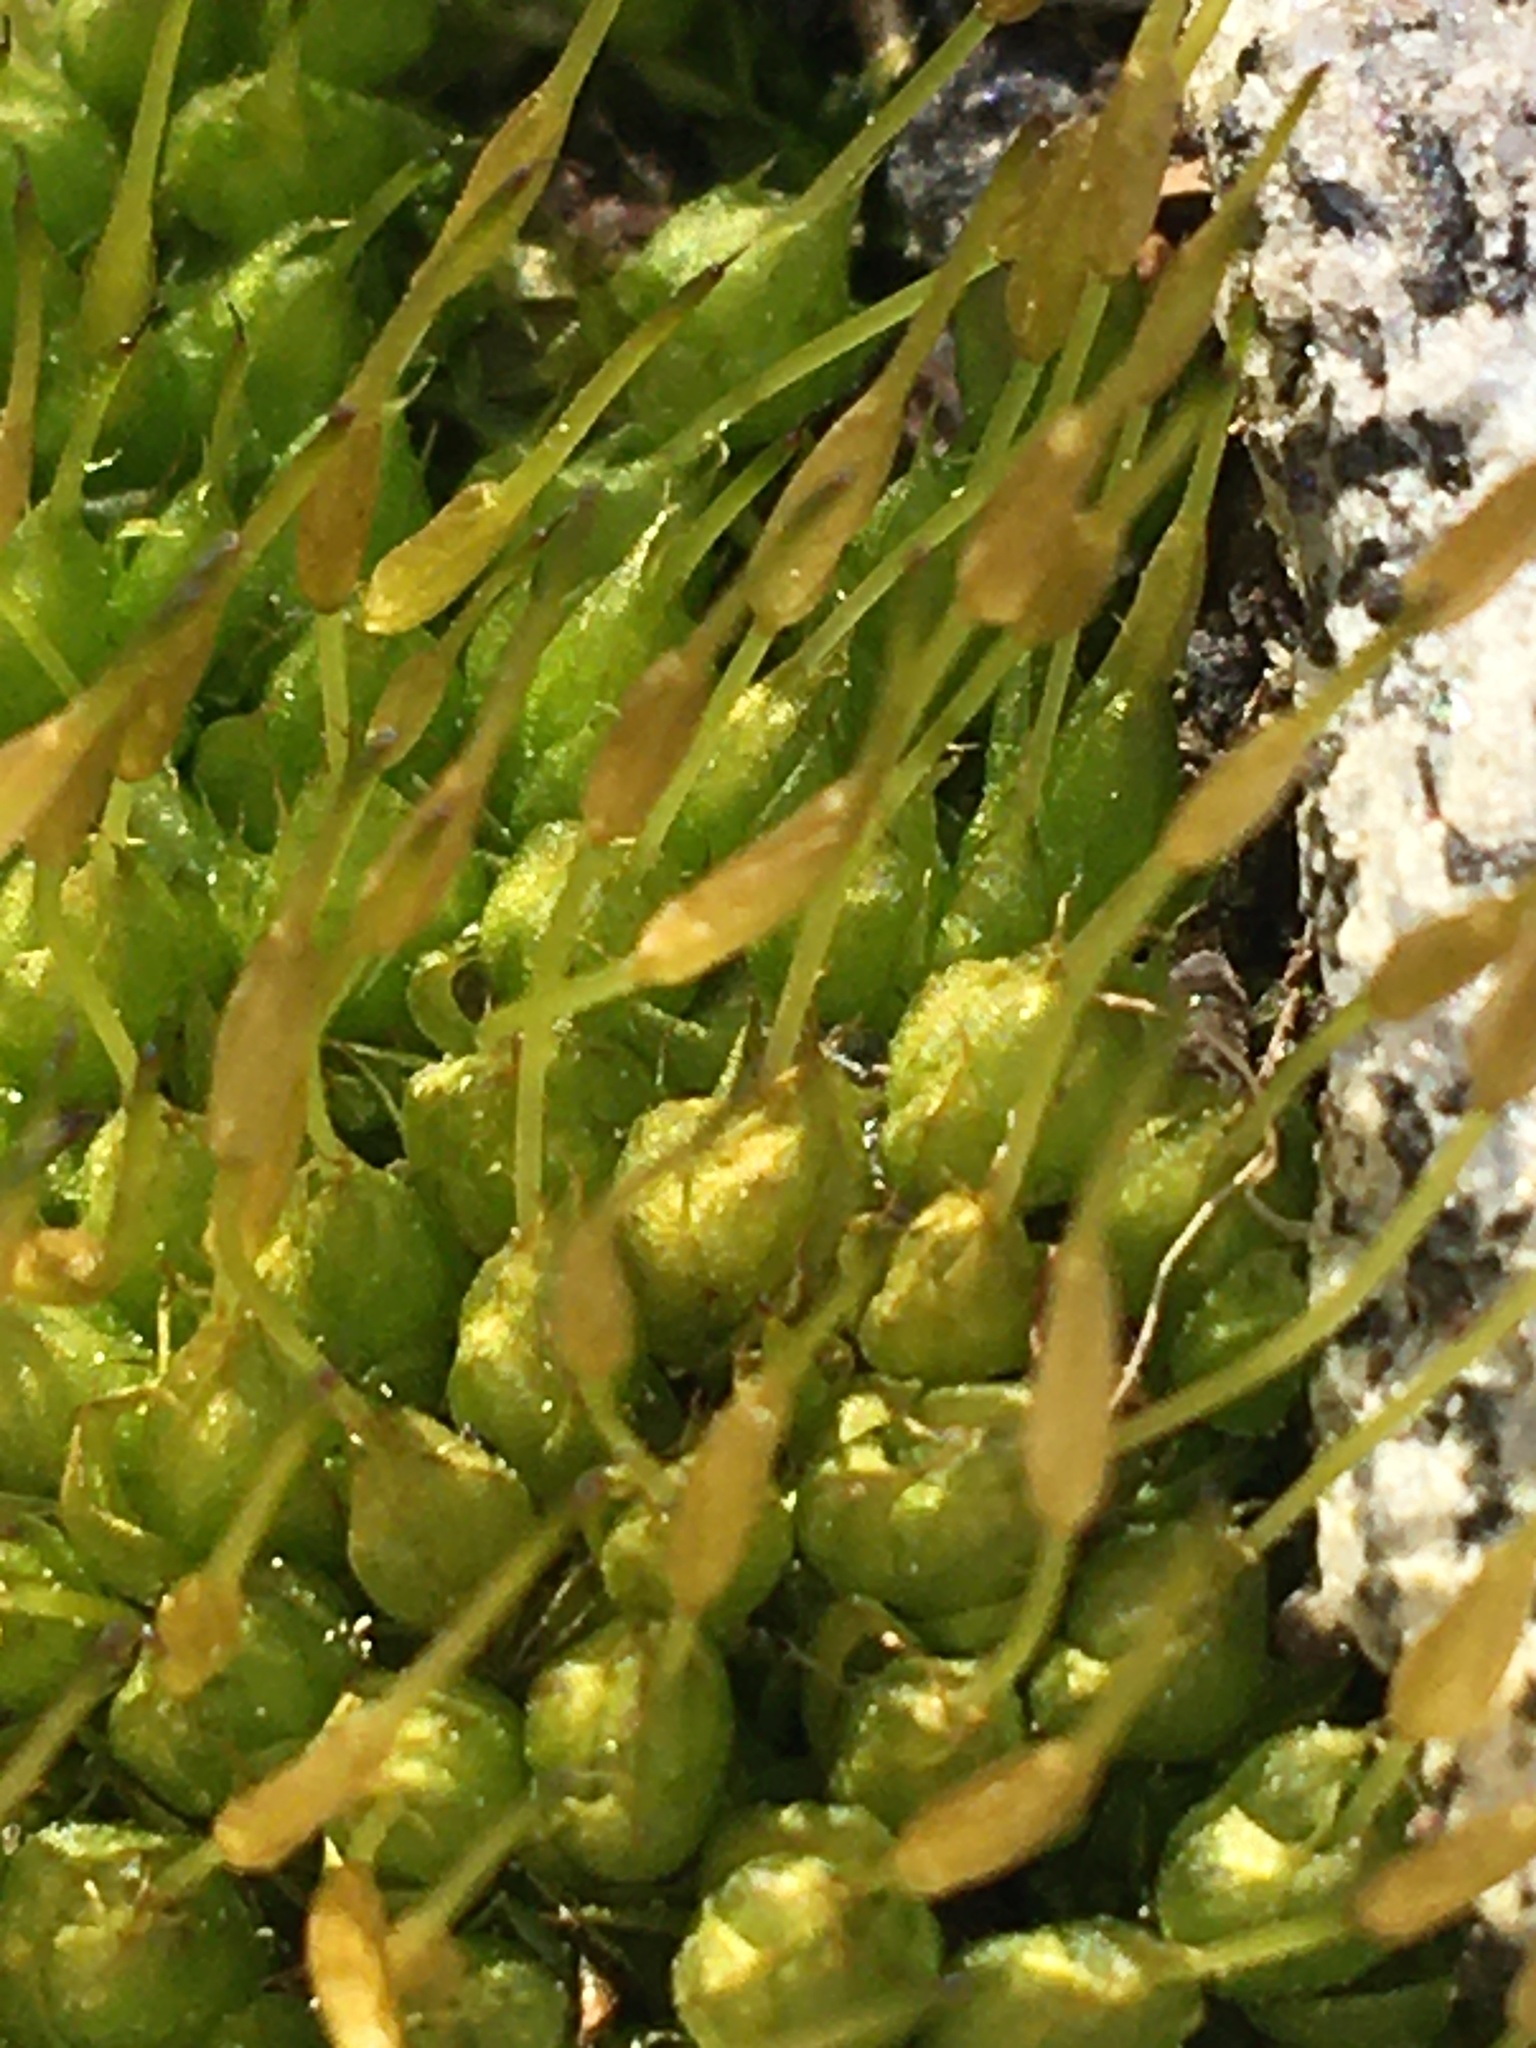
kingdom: Plantae
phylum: Bryophyta
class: Bryopsida
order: Funariales
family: Funariaceae
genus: Funaria
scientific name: Funaria hygrometrica
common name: Common cord moss
